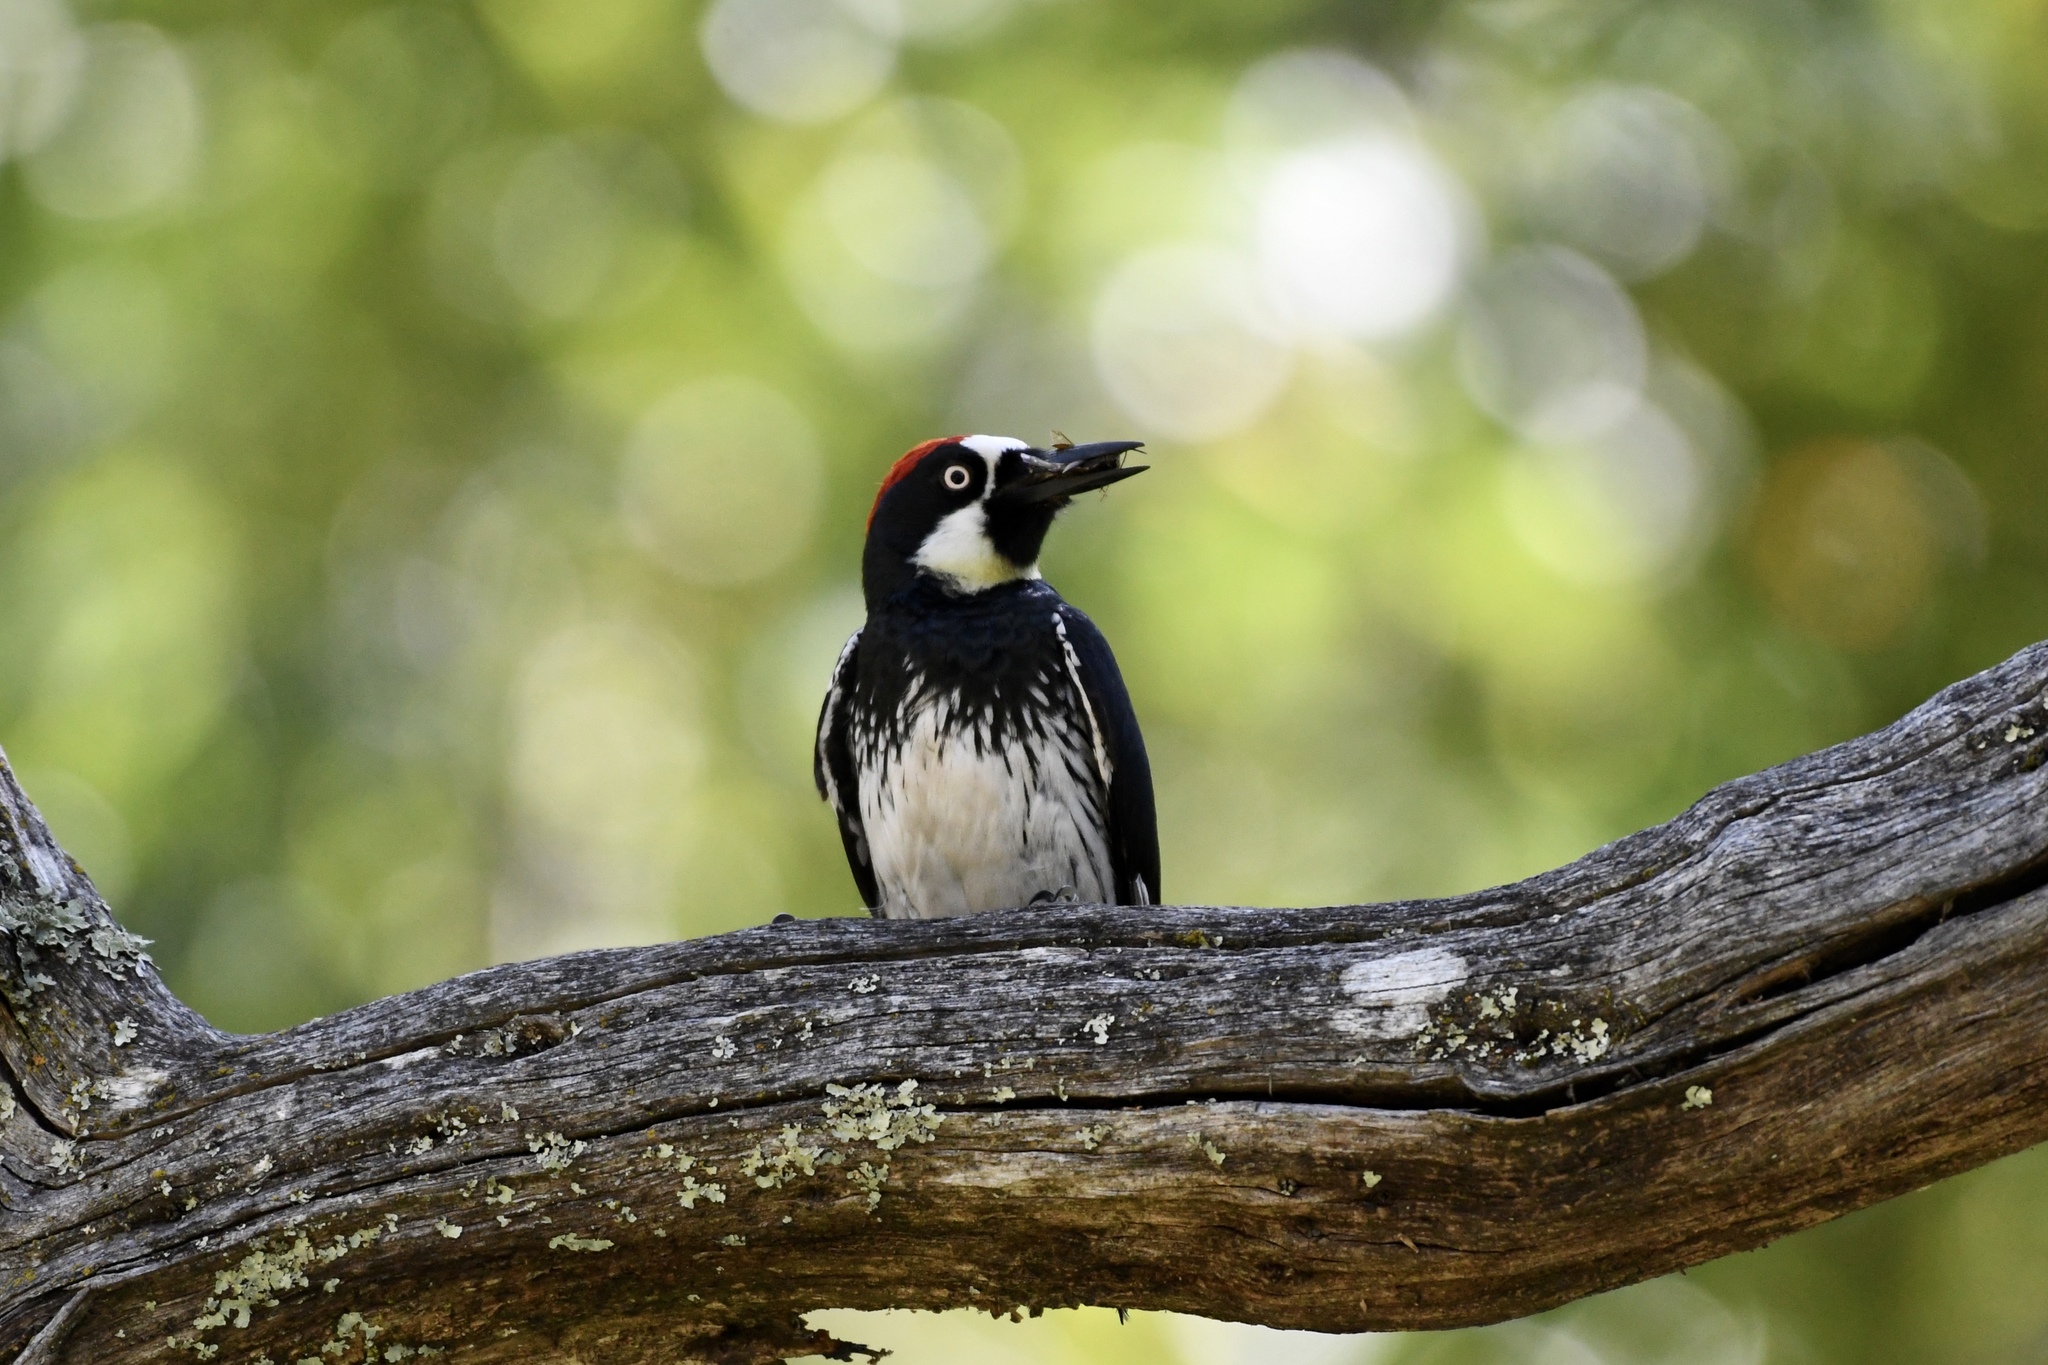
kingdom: Animalia
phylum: Chordata
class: Aves
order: Piciformes
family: Picidae
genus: Melanerpes
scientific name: Melanerpes formicivorus
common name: Acorn woodpecker
